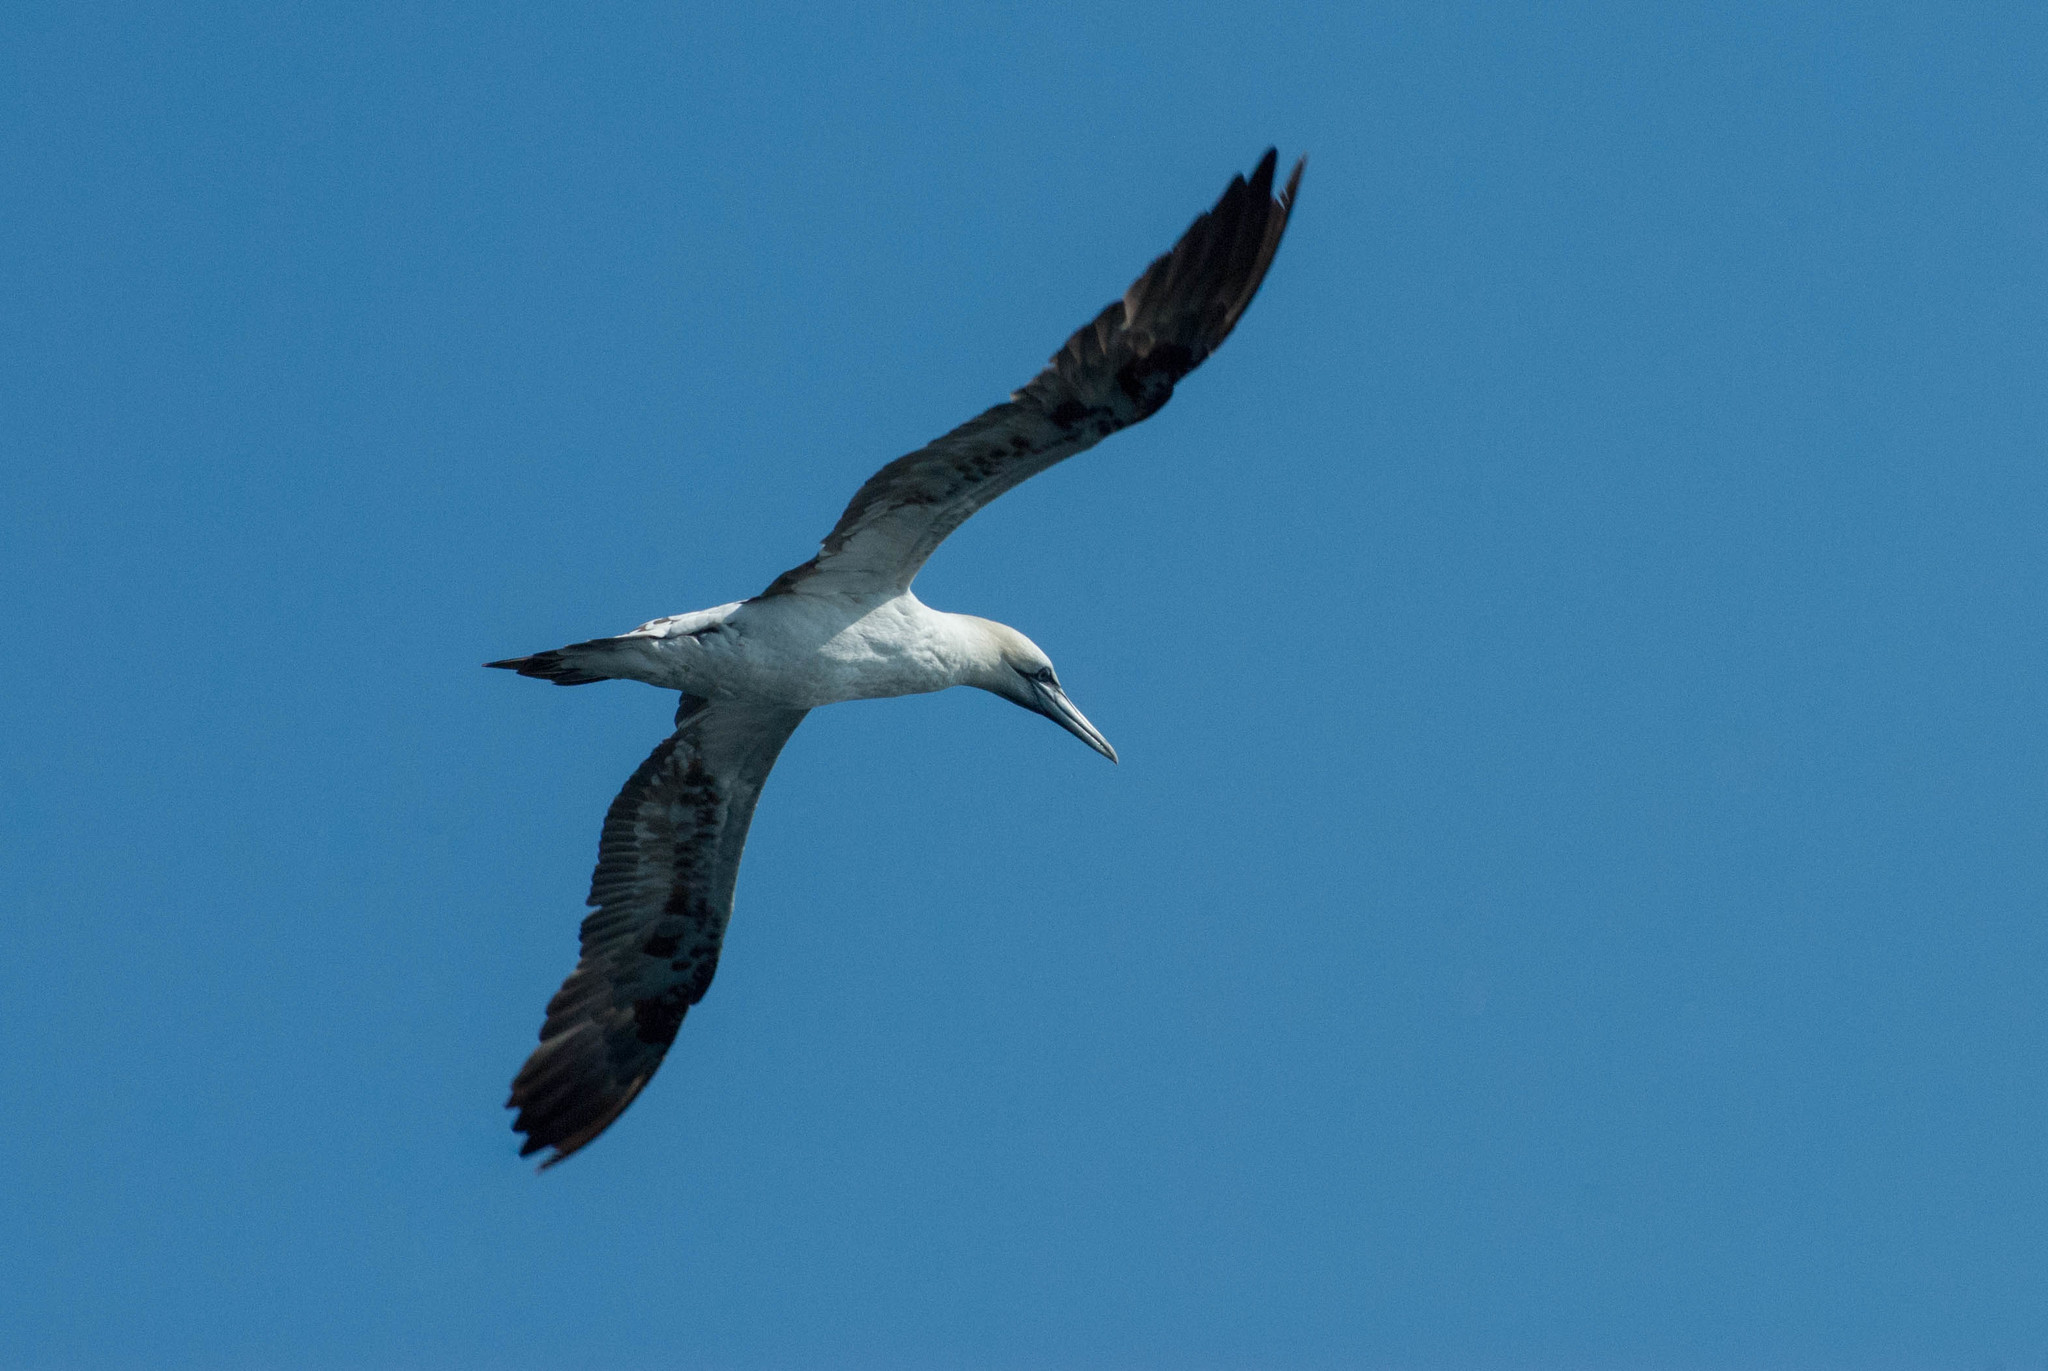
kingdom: Animalia
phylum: Chordata
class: Aves
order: Suliformes
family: Sulidae
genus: Morus
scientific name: Morus bassanus
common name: Northern gannet
